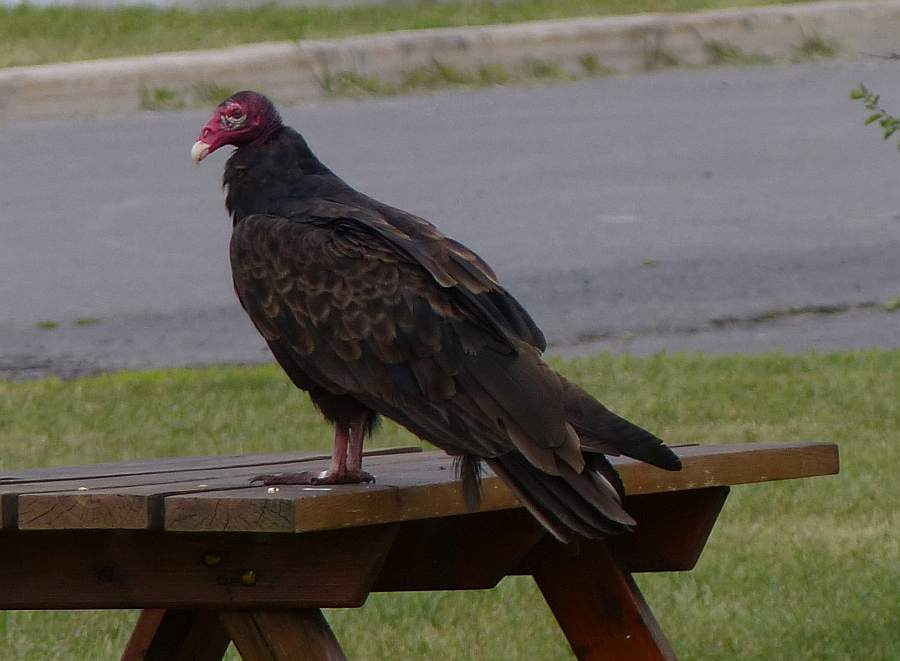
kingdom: Animalia
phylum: Chordata
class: Aves
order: Accipitriformes
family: Cathartidae
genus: Cathartes
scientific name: Cathartes aura
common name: Turkey vulture
